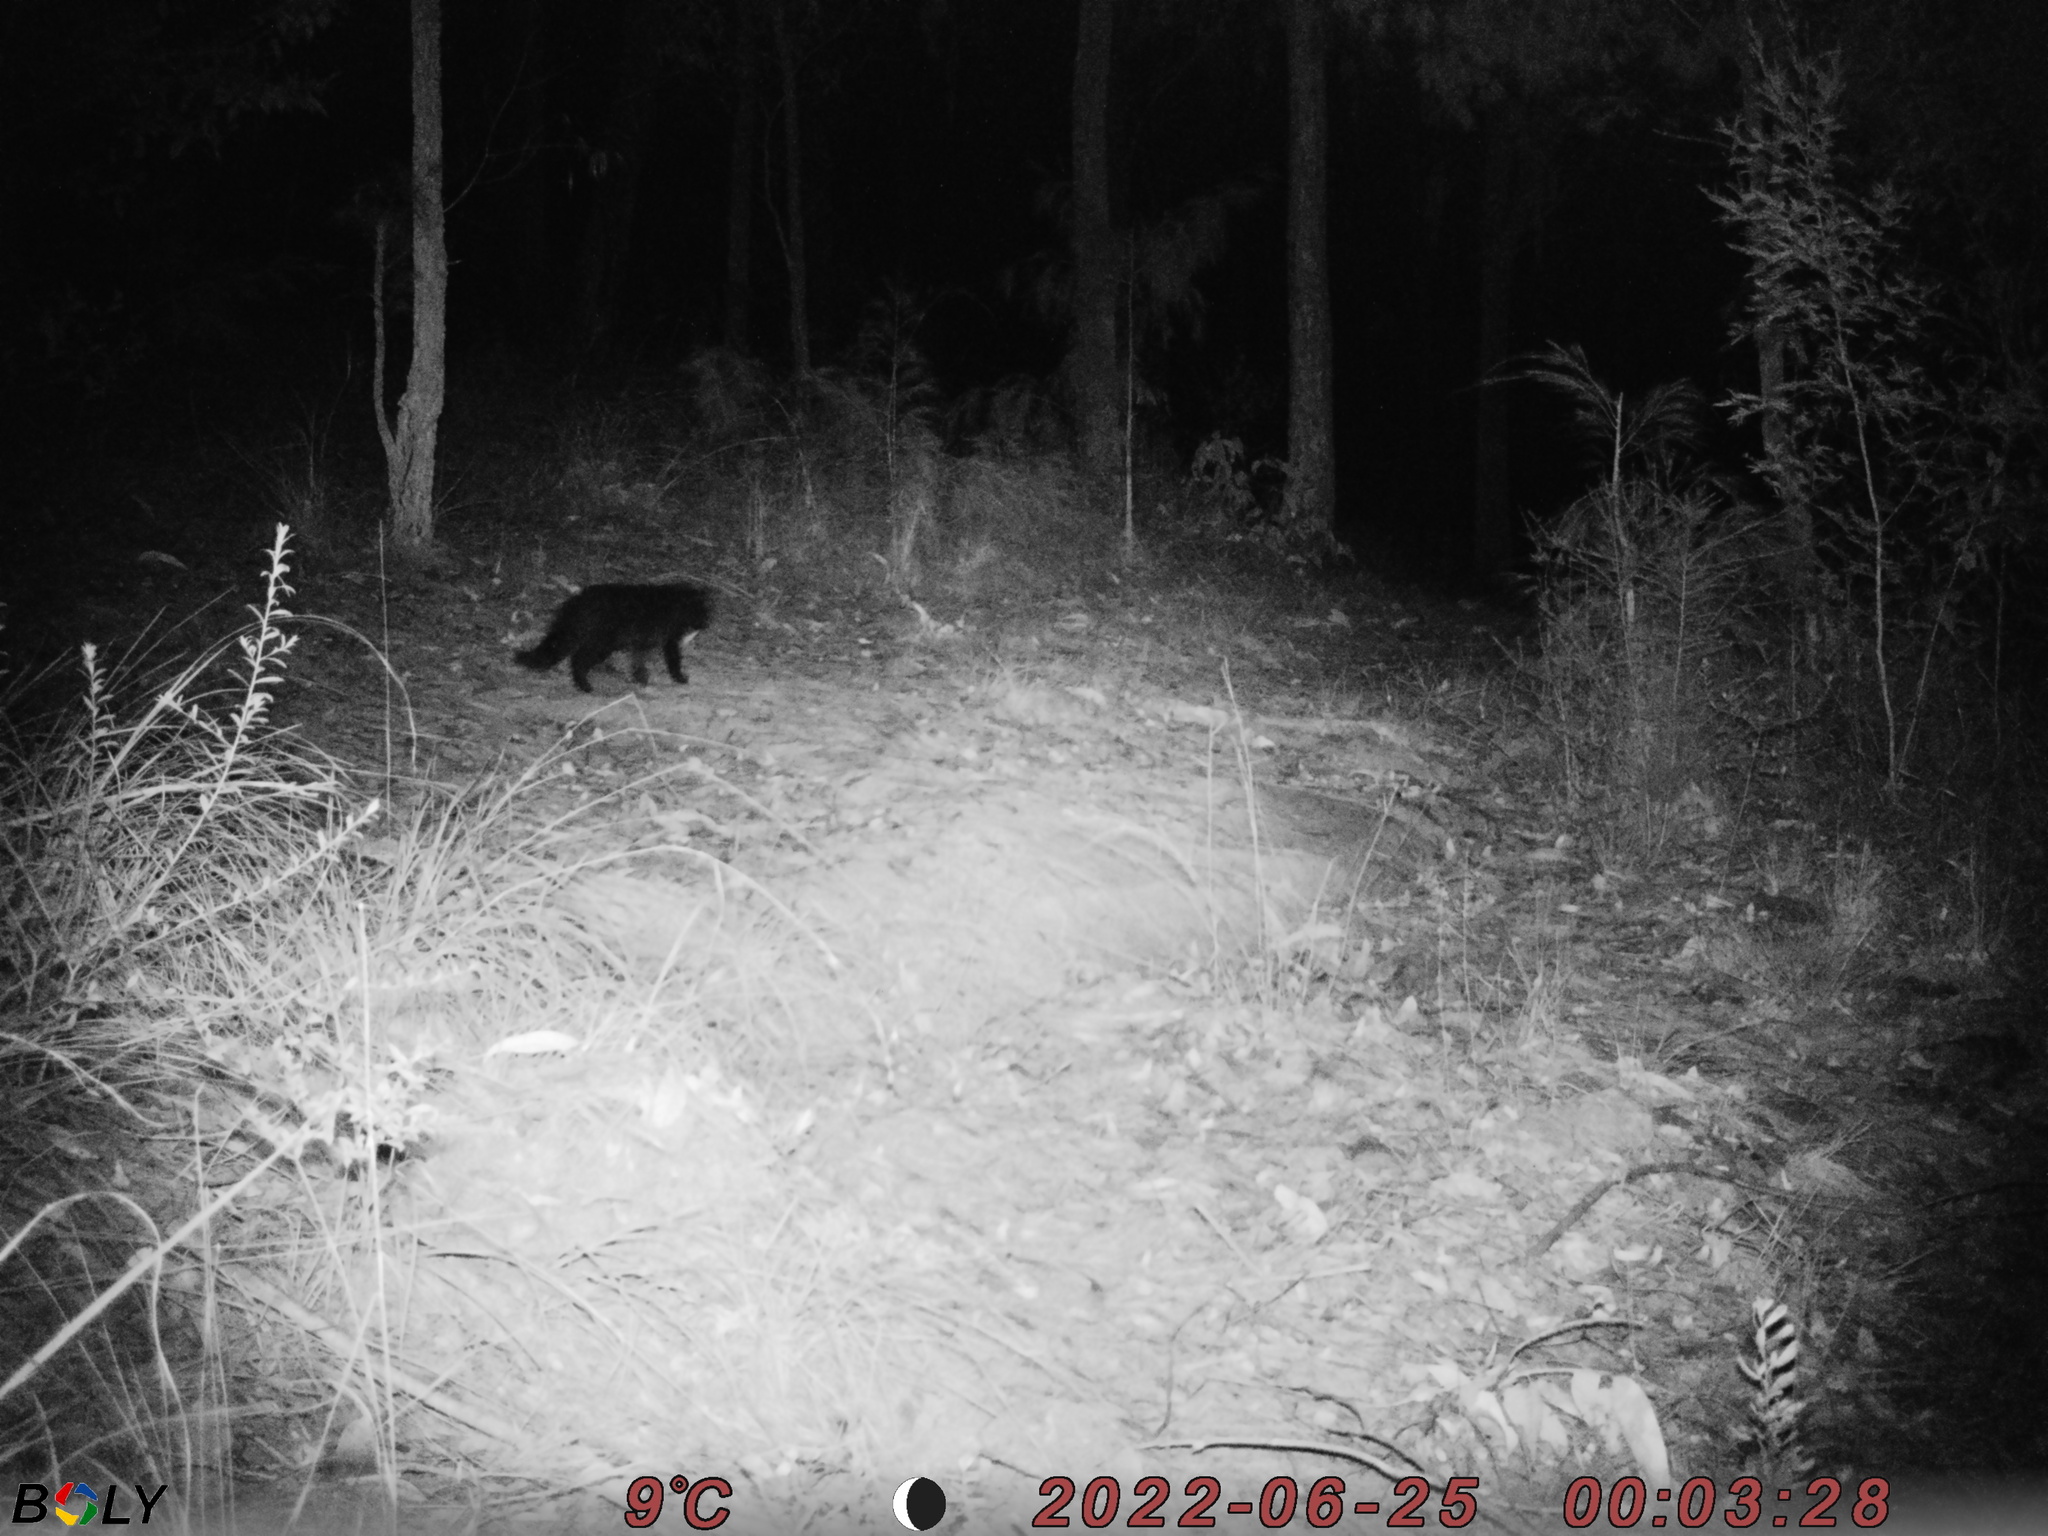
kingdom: Animalia
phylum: Chordata
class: Mammalia
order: Carnivora
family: Felidae
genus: Felis
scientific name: Felis catus
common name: Domestic cat
